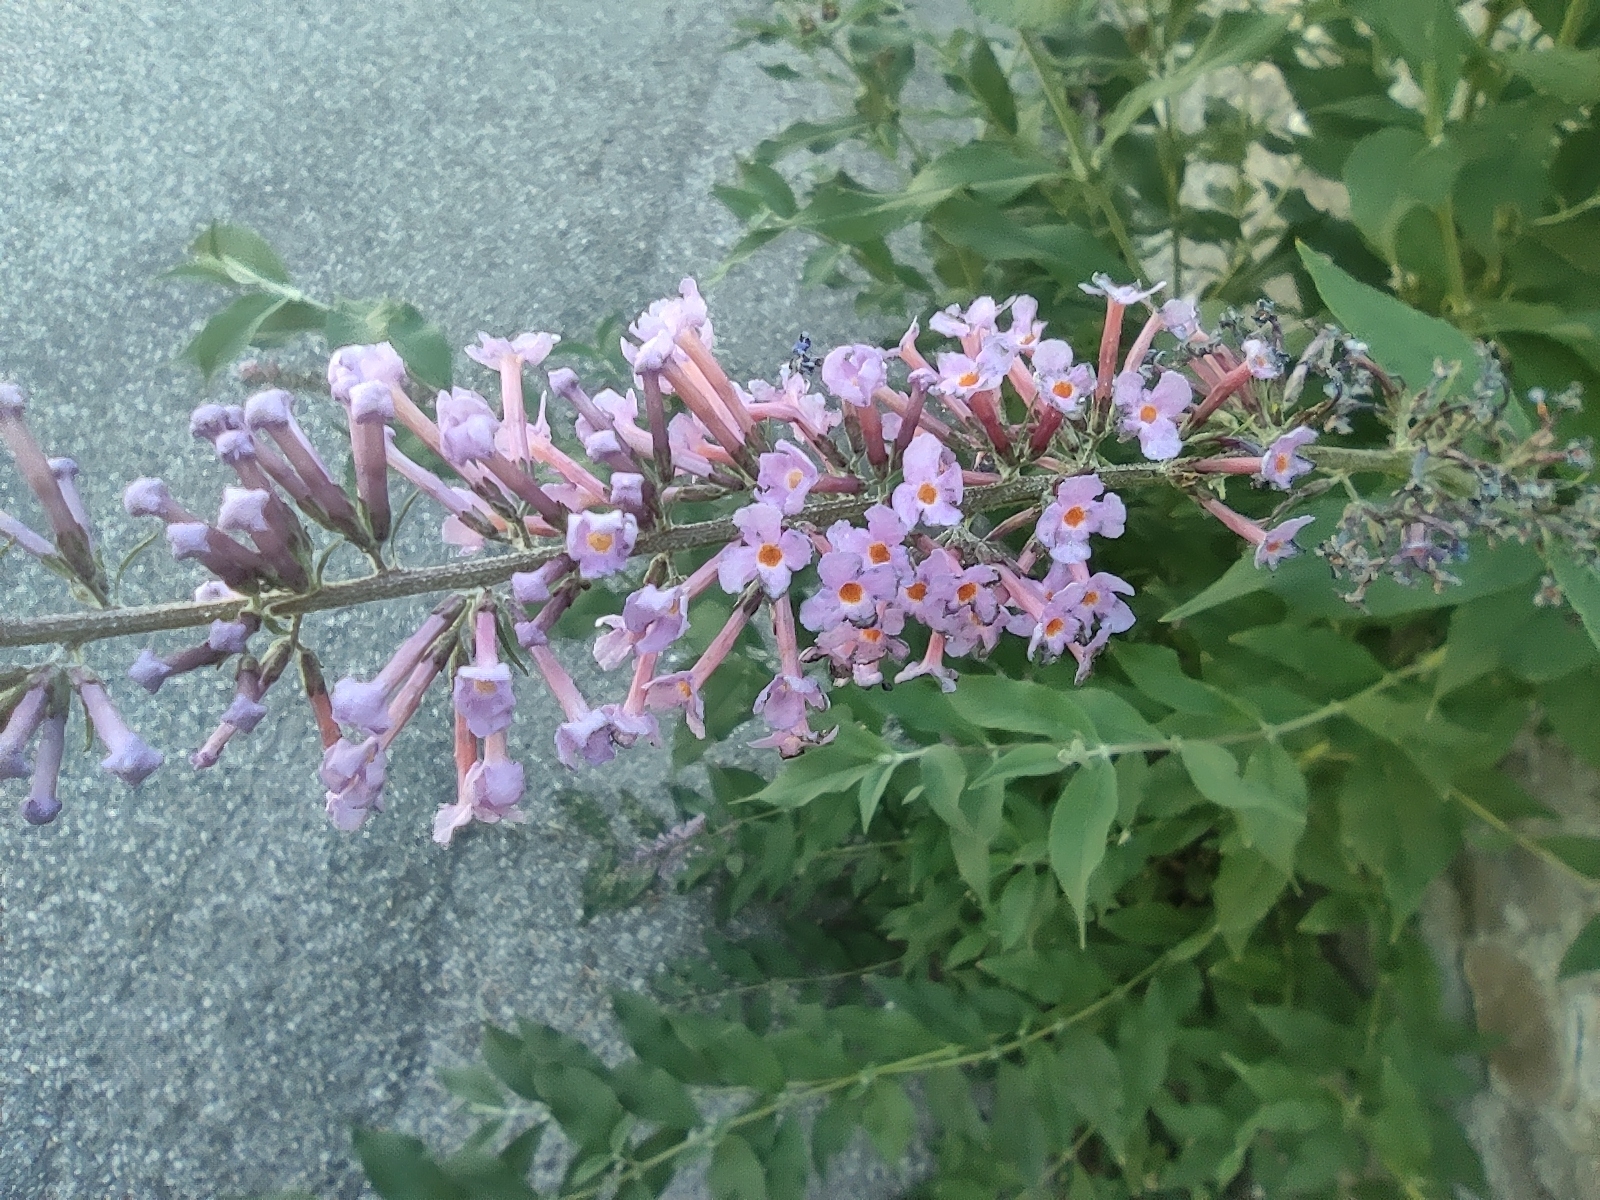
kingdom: Plantae
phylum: Tracheophyta
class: Magnoliopsida
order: Lamiales
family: Scrophulariaceae
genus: Buddleja
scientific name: Buddleja davidii
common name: Butterfly-bush
